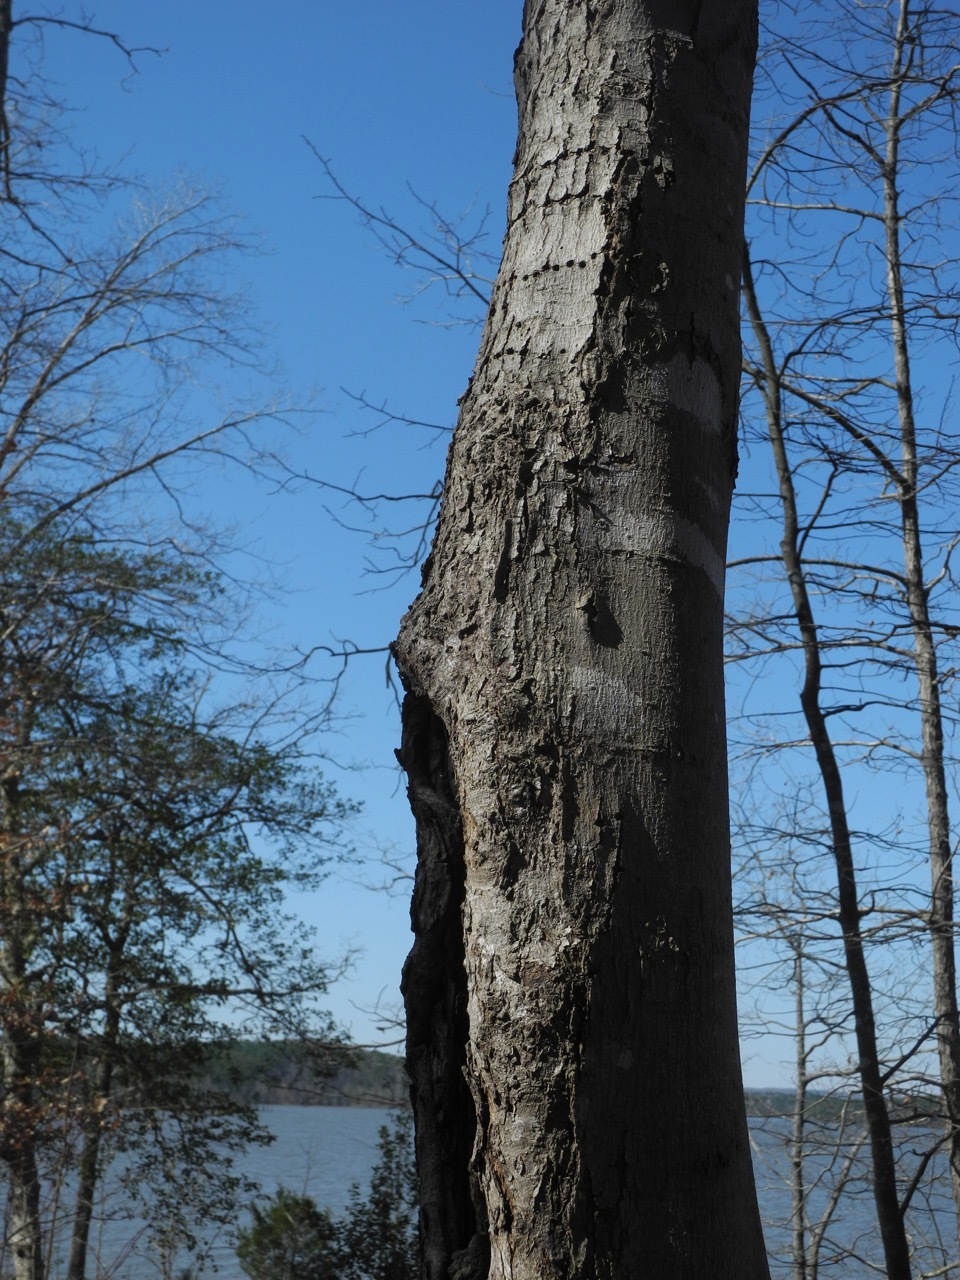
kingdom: Plantae
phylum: Tracheophyta
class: Magnoliopsida
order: Sapindales
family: Sapindaceae
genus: Acer
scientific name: Acer freemanii
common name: Freeman maple
